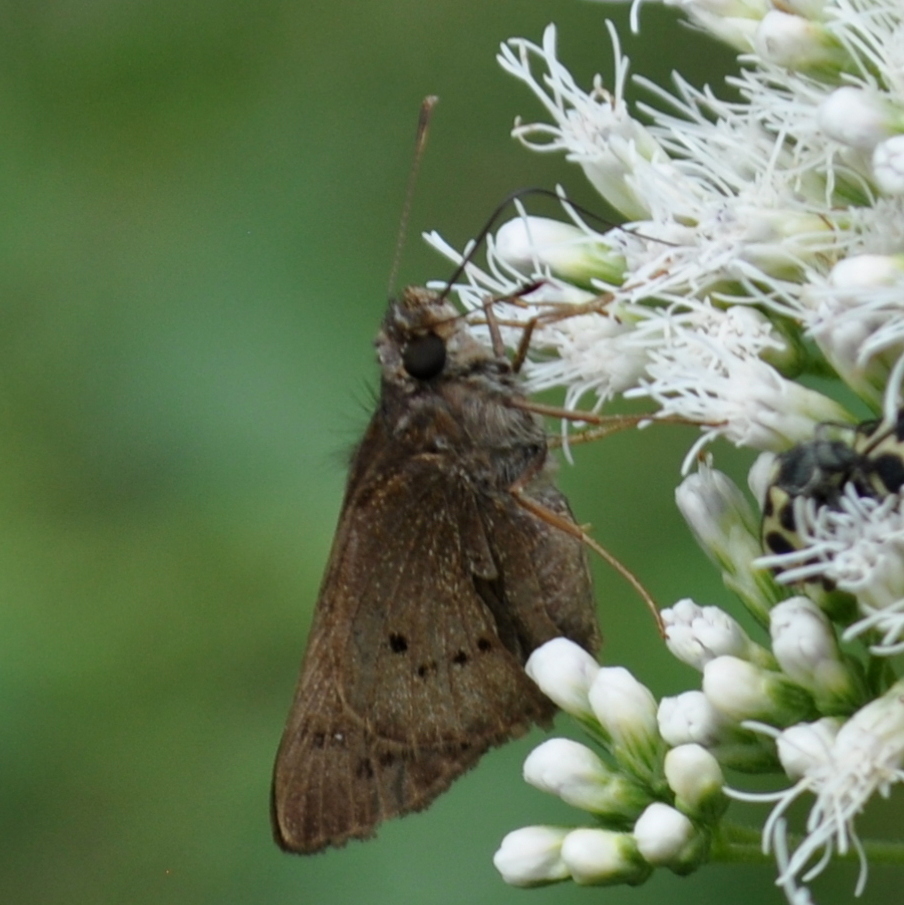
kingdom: Animalia
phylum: Arthropoda
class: Insecta
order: Lepidoptera
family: Hesperiidae
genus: Mucia
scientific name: Mucia zygia
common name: Black-dotted skipper
